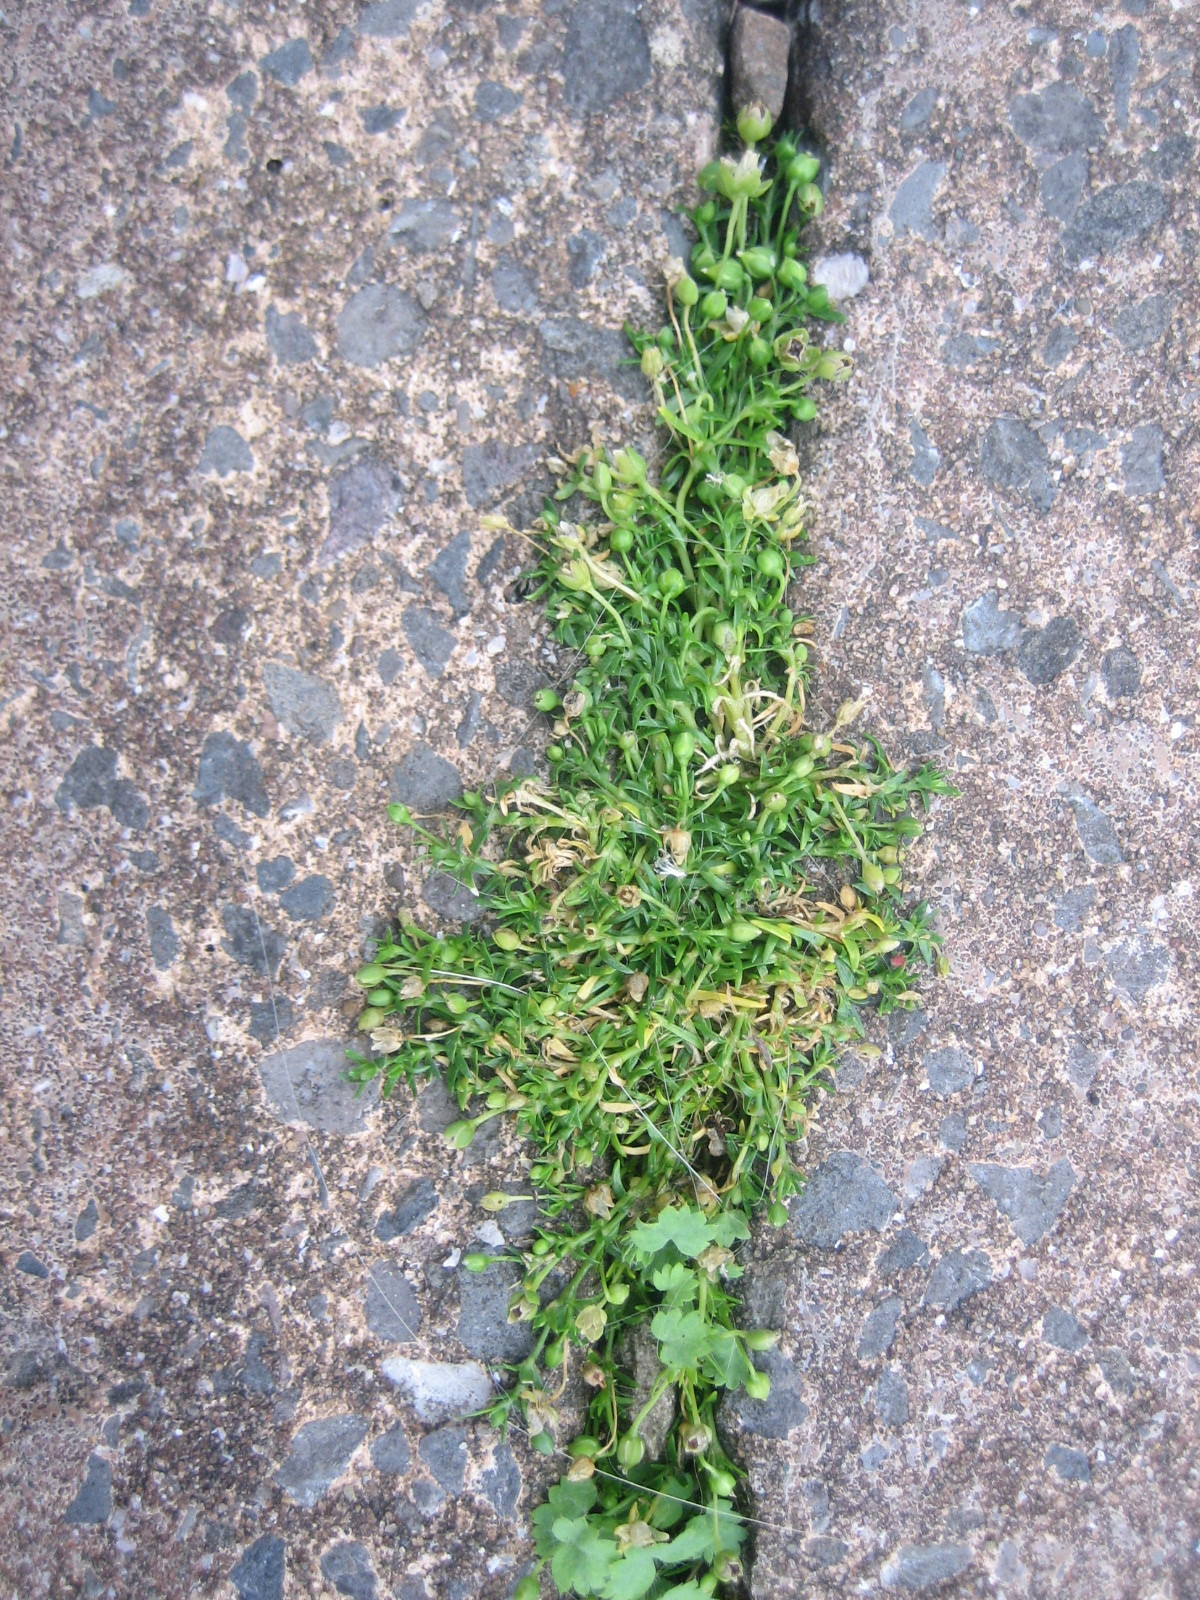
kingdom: Plantae
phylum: Tracheophyta
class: Magnoliopsida
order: Caryophyllales
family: Caryophyllaceae
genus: Sagina
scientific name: Sagina procumbens
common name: Procumbent pearlwort
